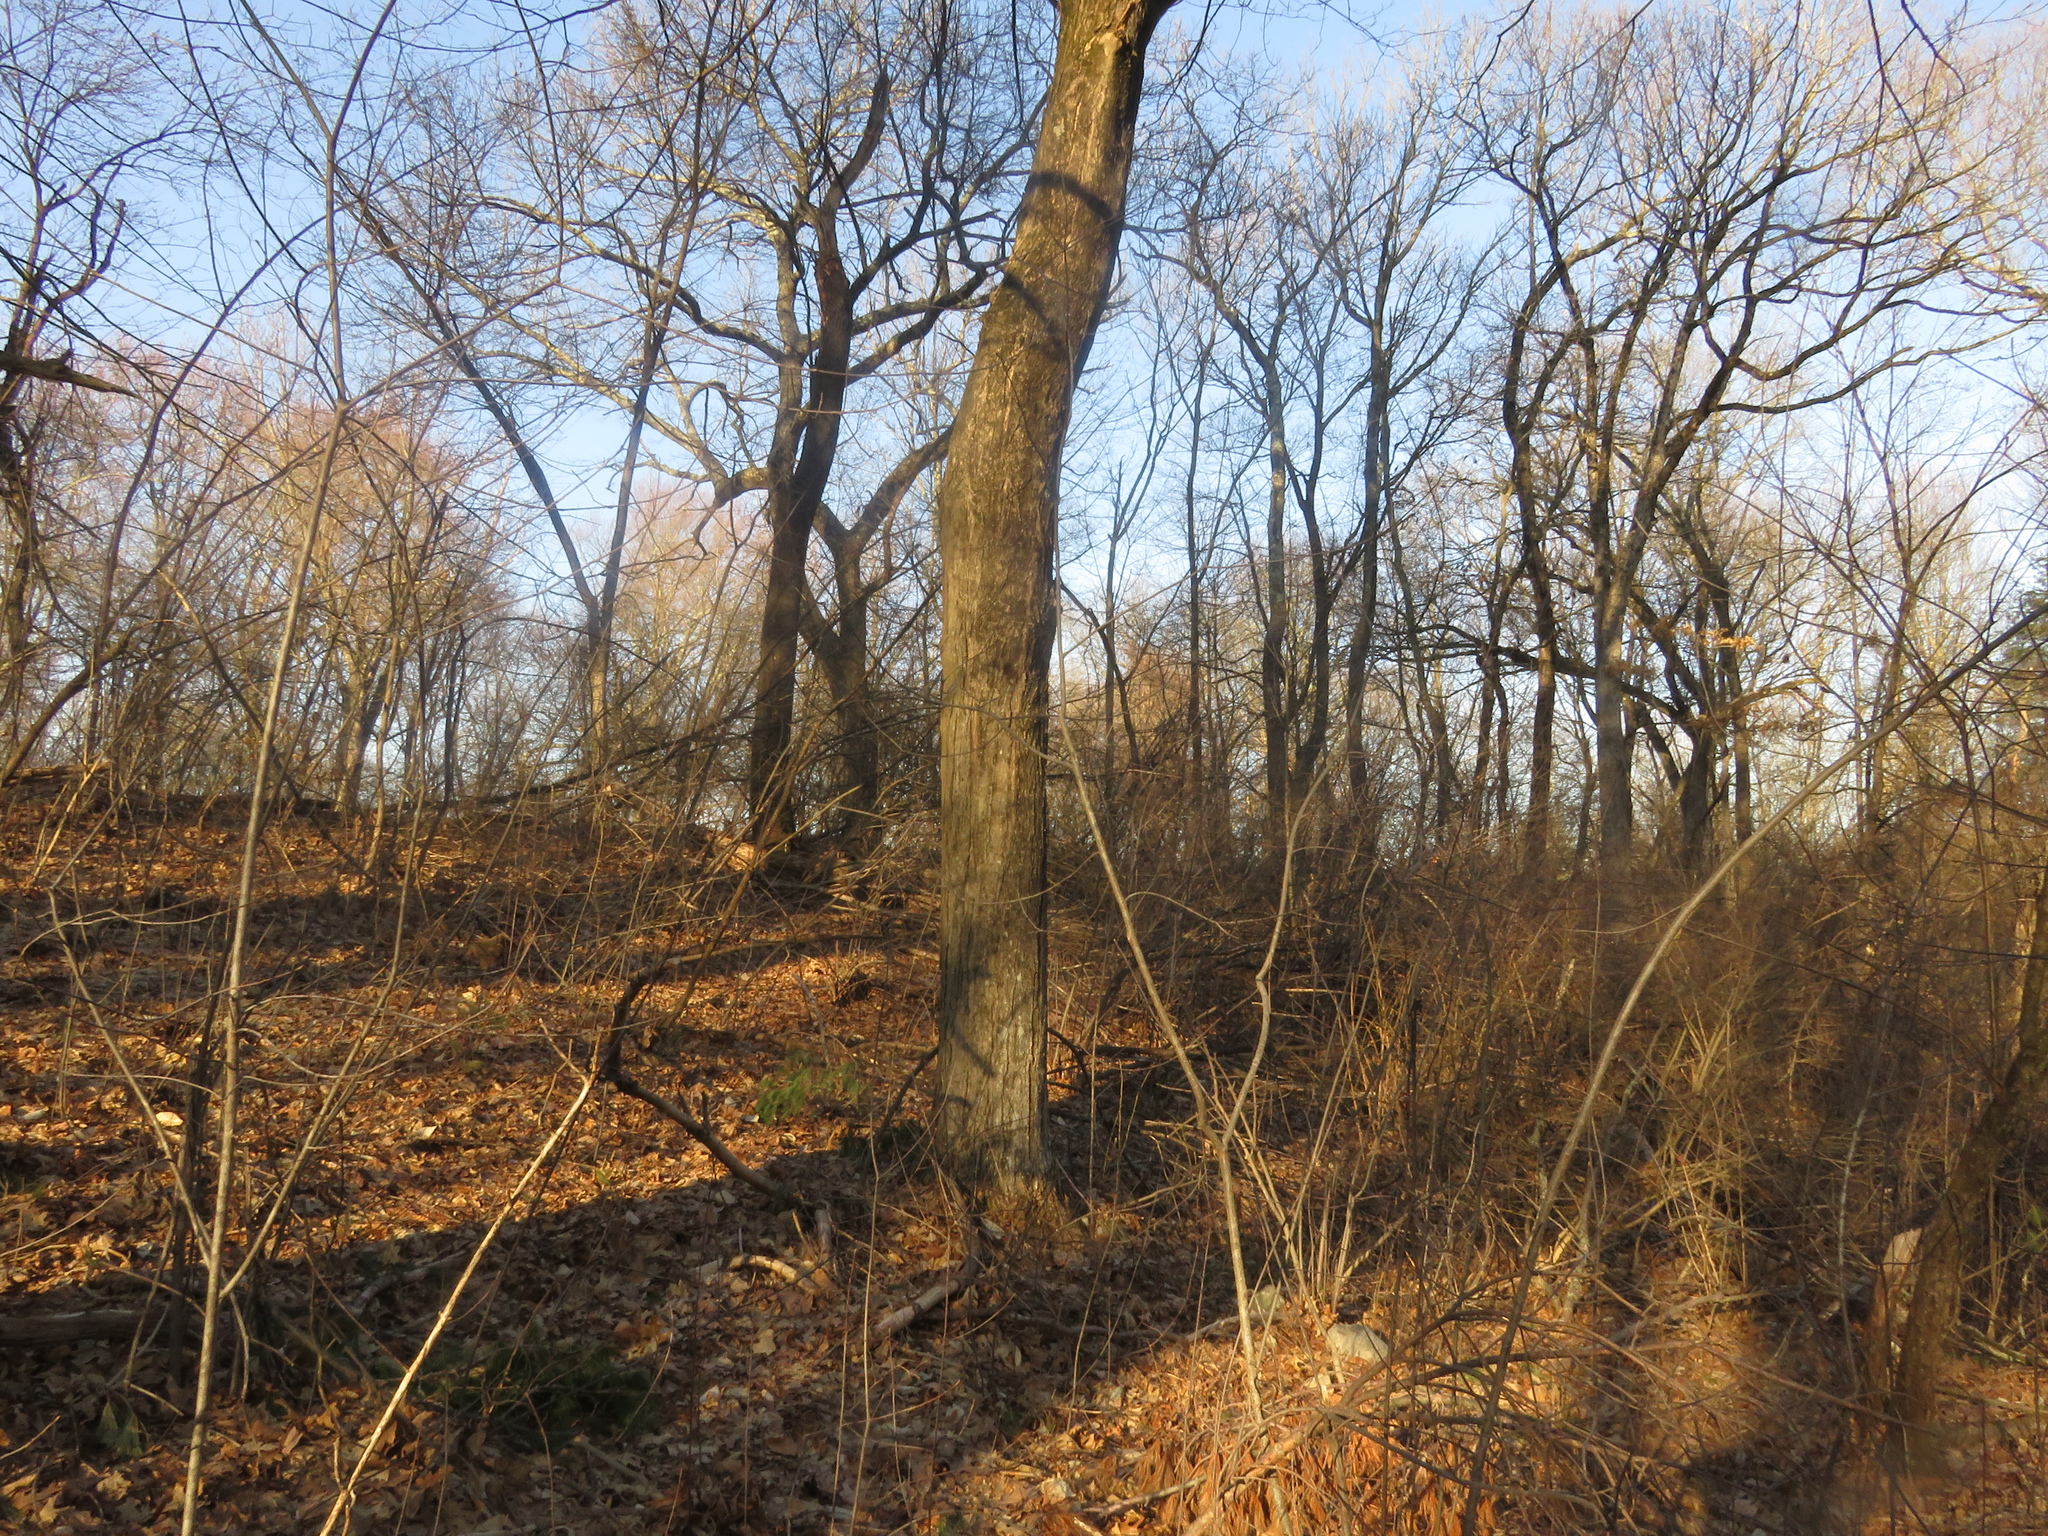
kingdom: Plantae
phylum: Tracheophyta
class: Magnoliopsida
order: Sapindales
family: Sapindaceae
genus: Acer
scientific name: Acer saccharum
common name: Sugar maple
